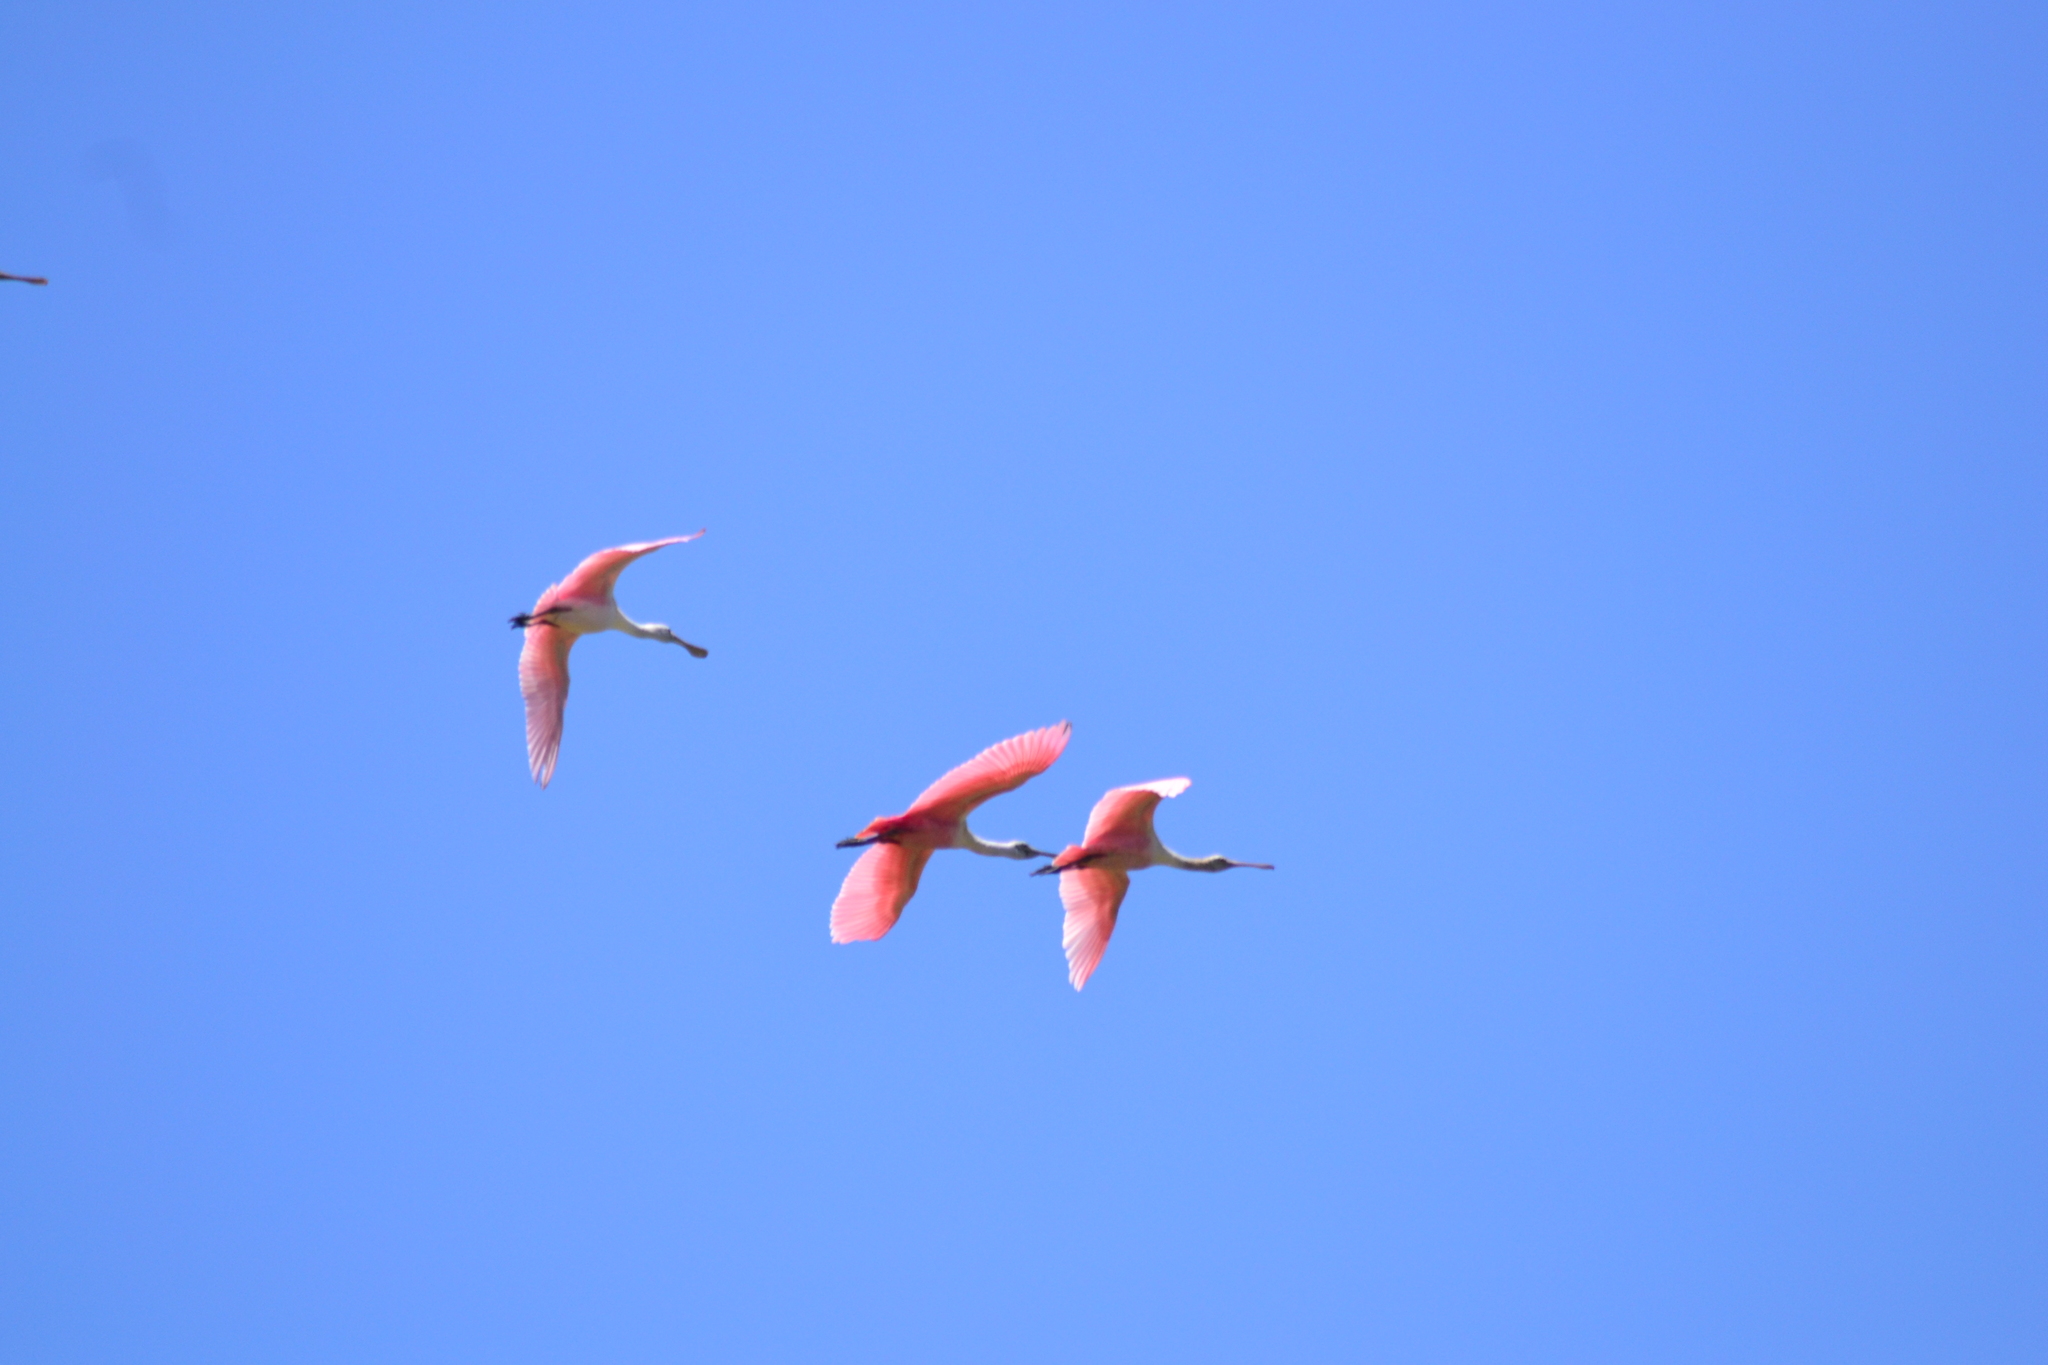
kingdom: Animalia
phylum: Chordata
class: Aves
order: Pelecaniformes
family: Threskiornithidae
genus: Platalea
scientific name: Platalea ajaja
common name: Roseate spoonbill
